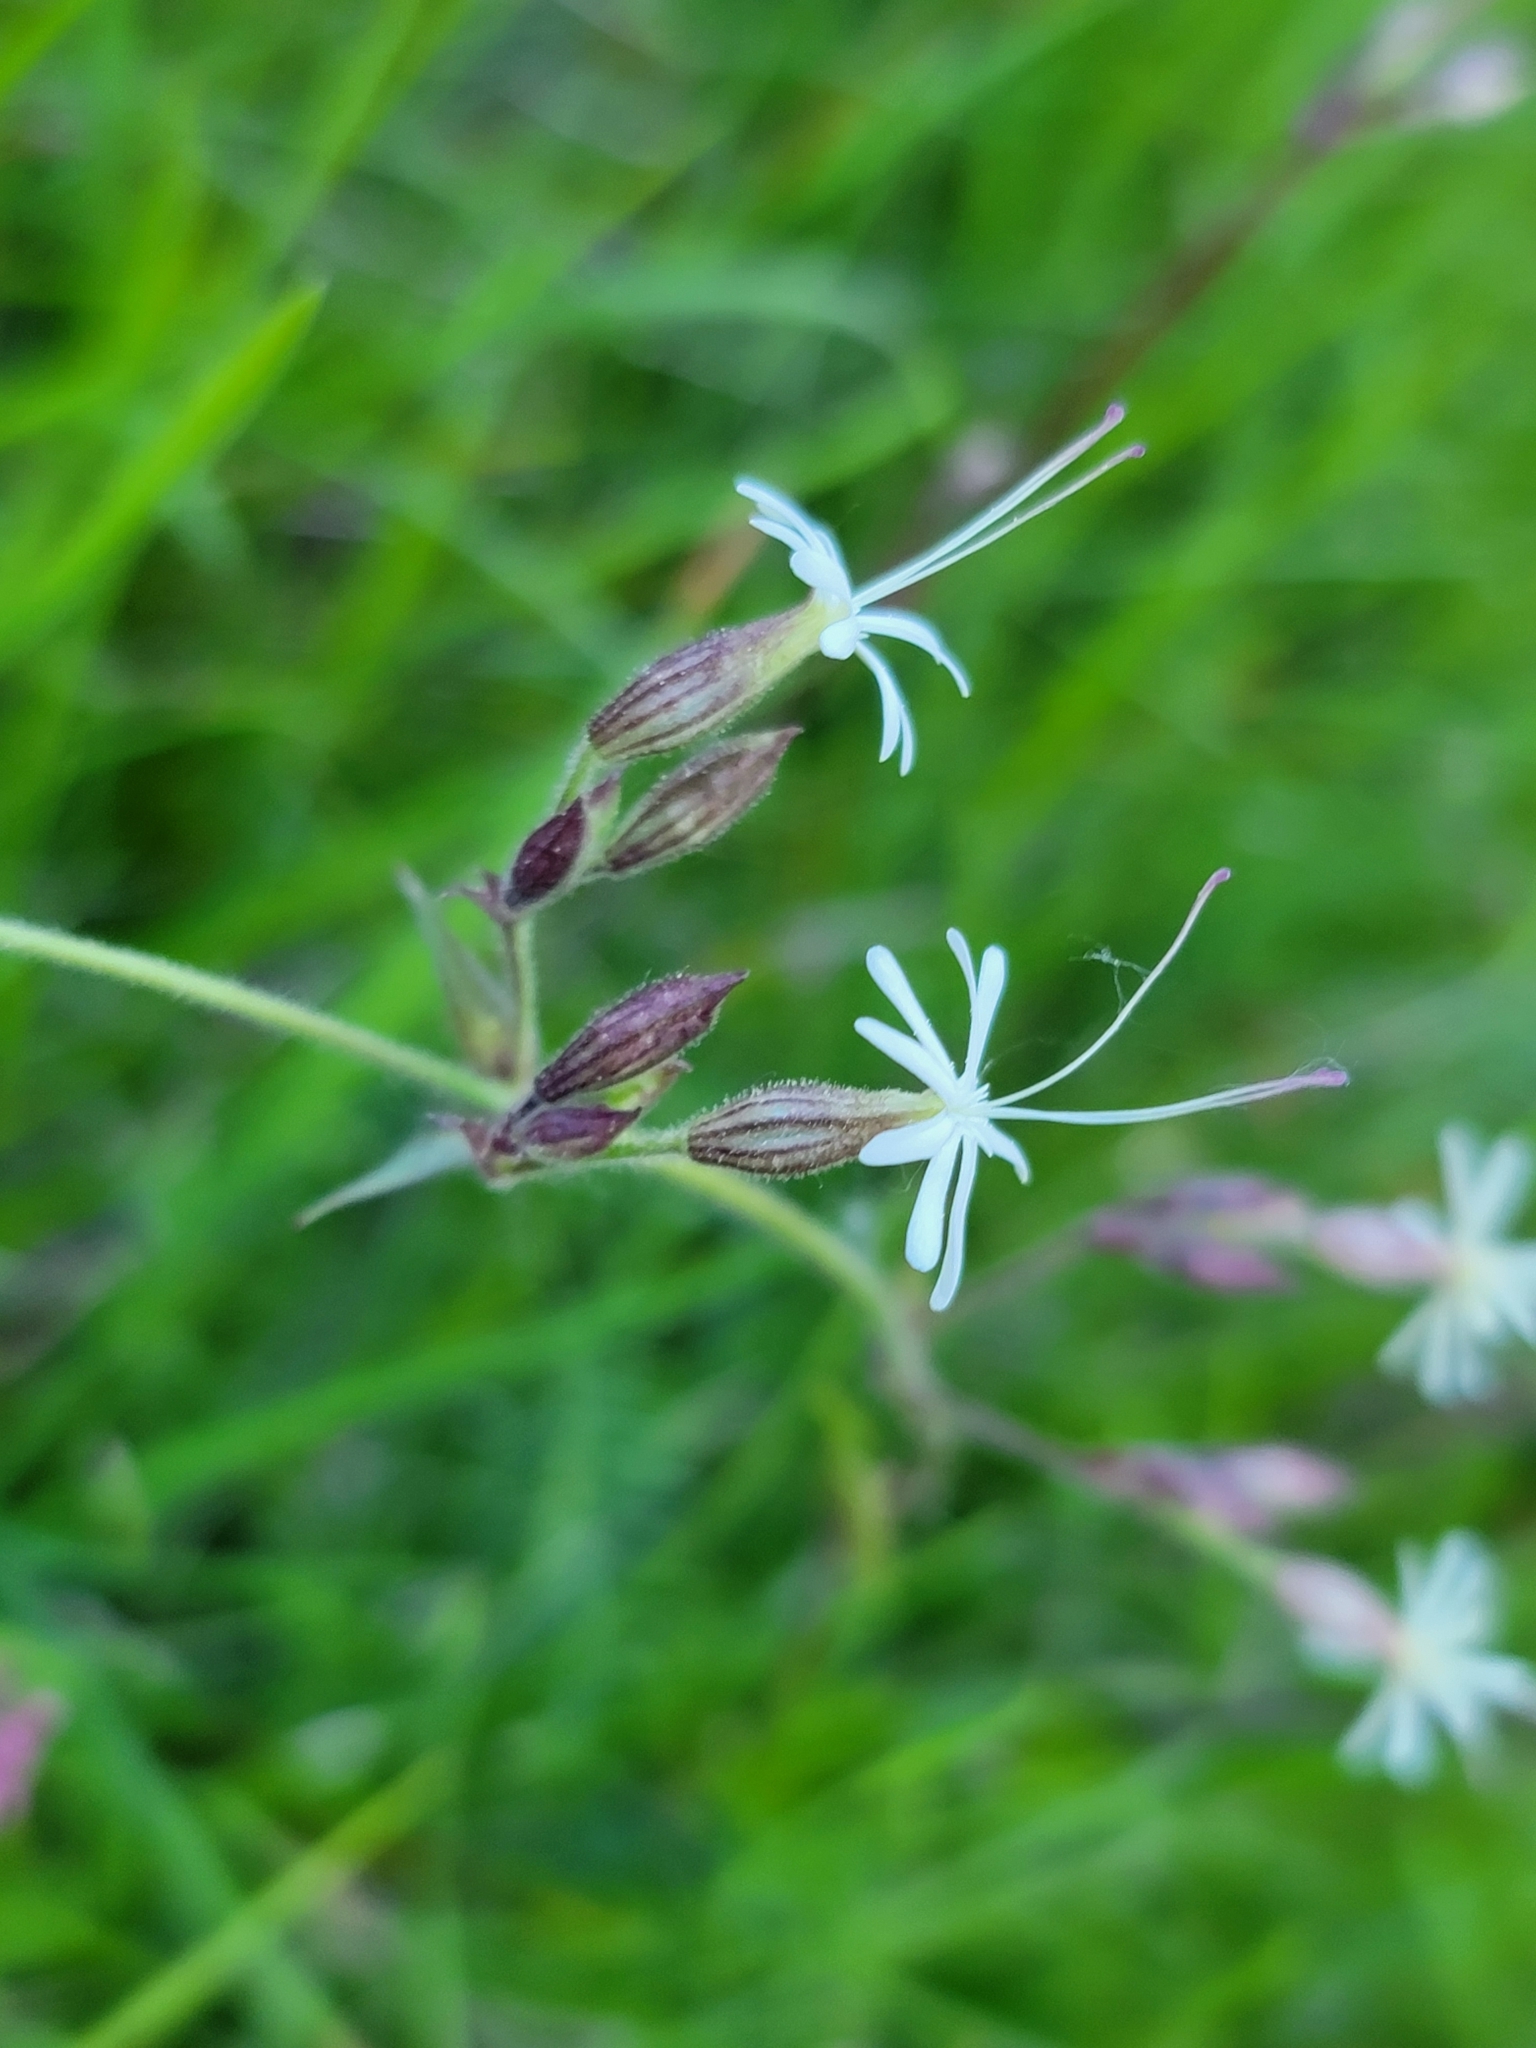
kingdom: Plantae
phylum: Tracheophyta
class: Magnoliopsida
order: Caryophyllales
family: Caryophyllaceae
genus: Silene
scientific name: Silene nutans
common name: Nottingham catchfly
